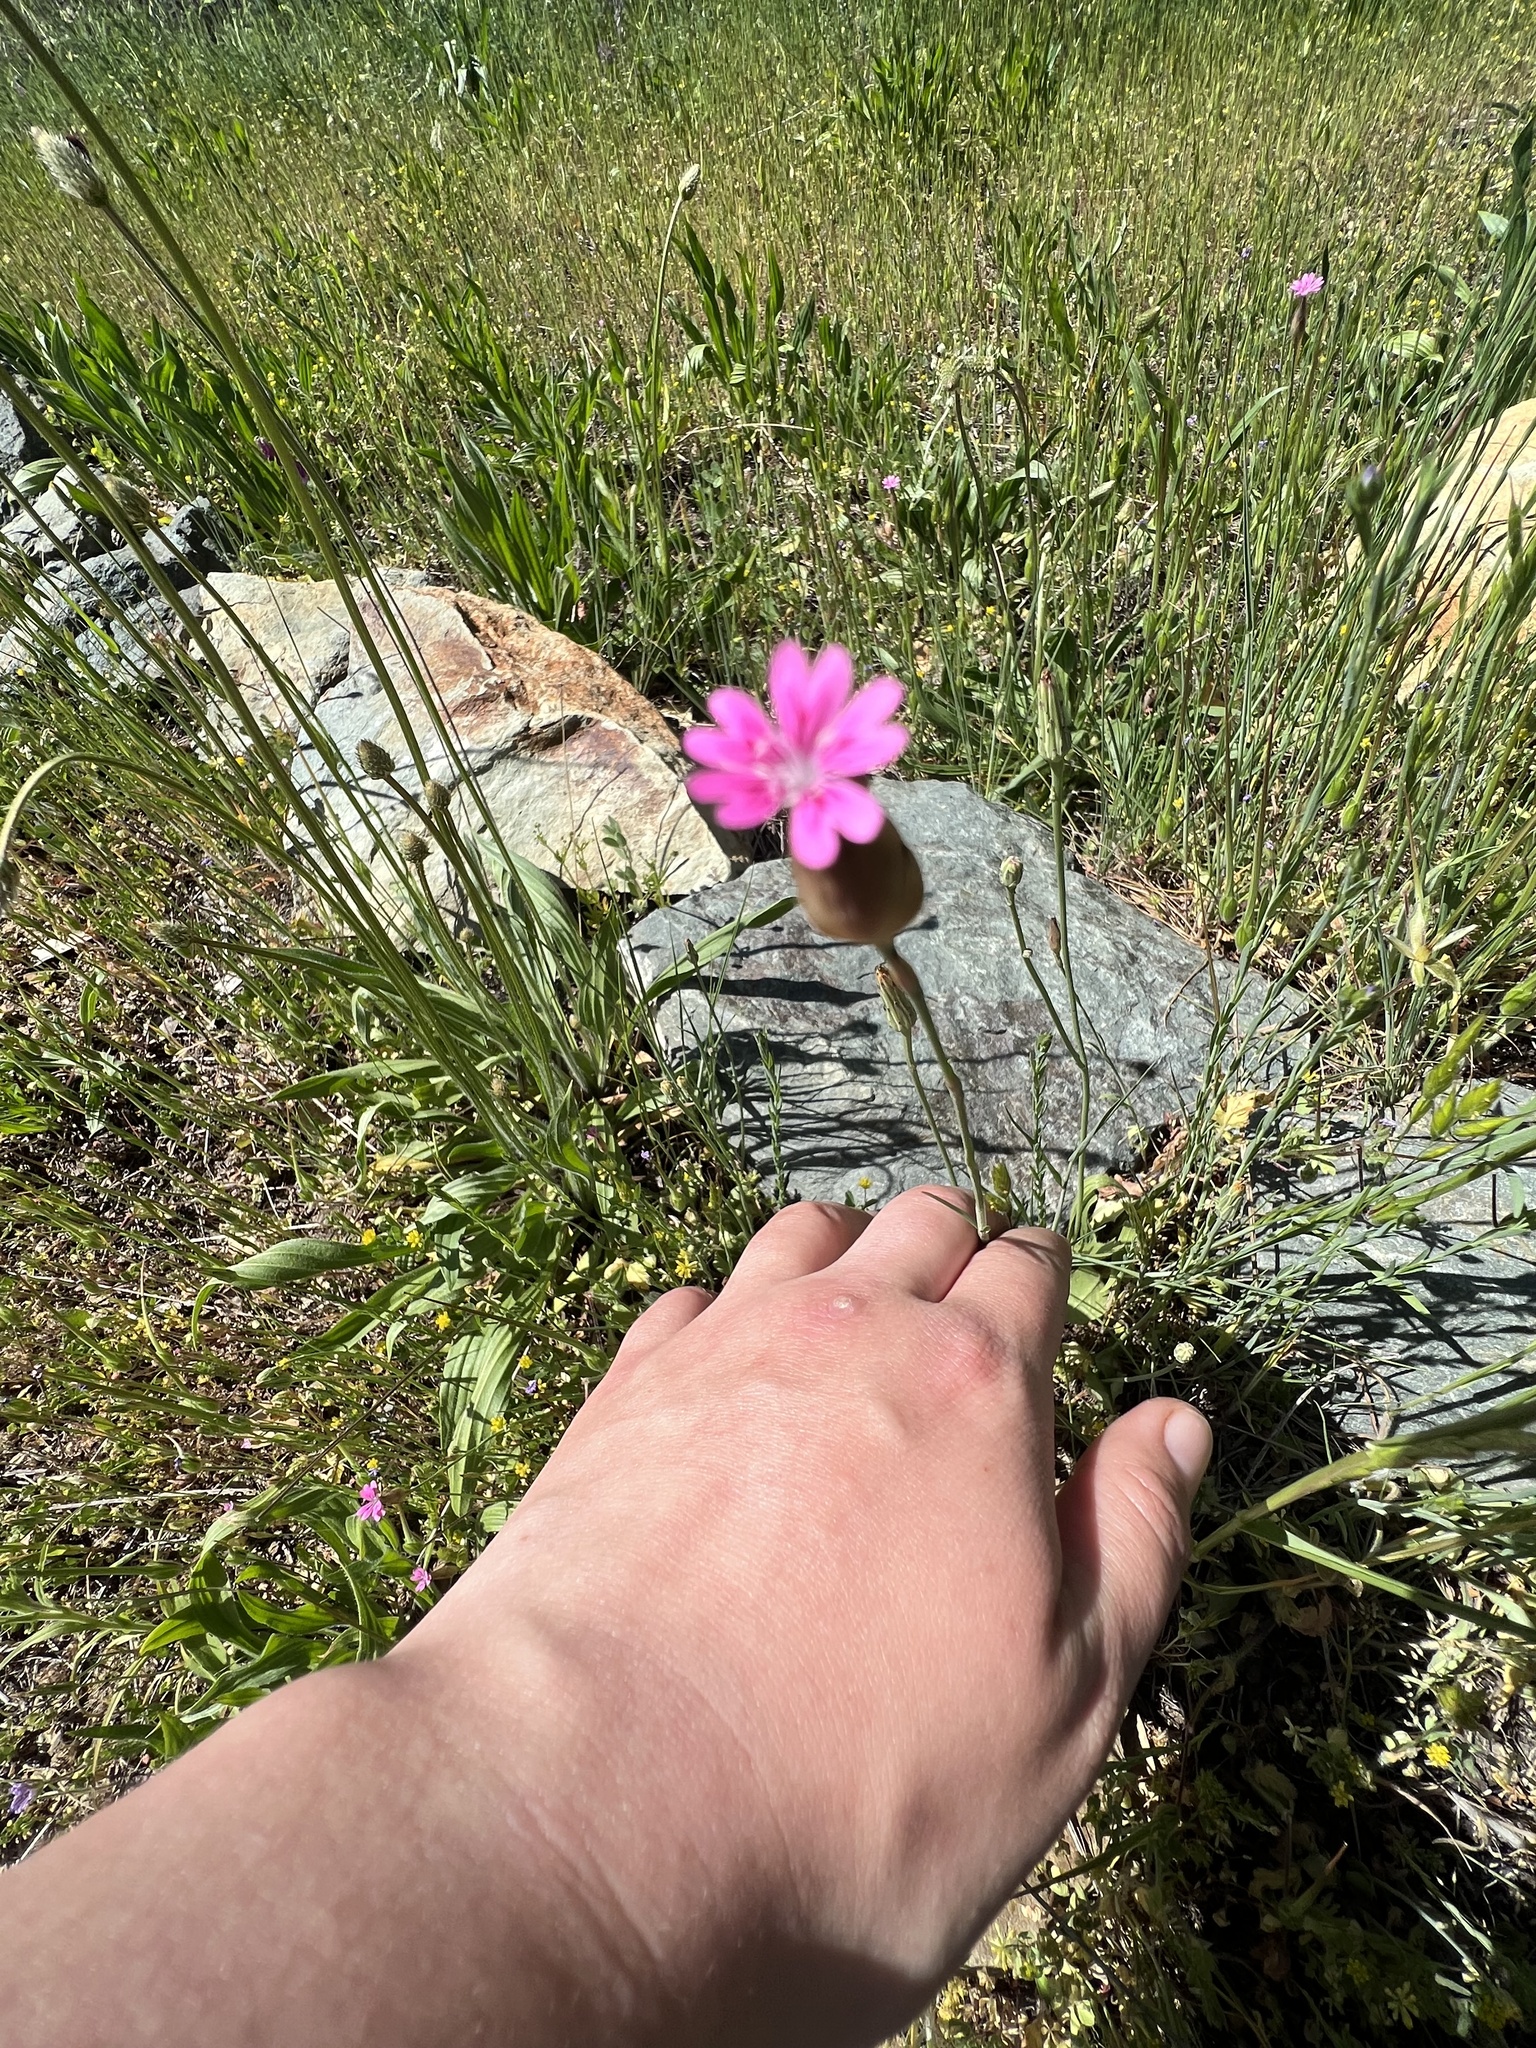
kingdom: Plantae
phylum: Tracheophyta
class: Magnoliopsida
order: Caryophyllales
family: Caryophyllaceae
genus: Petrorhagia
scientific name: Petrorhagia dubia
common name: Hairypink
